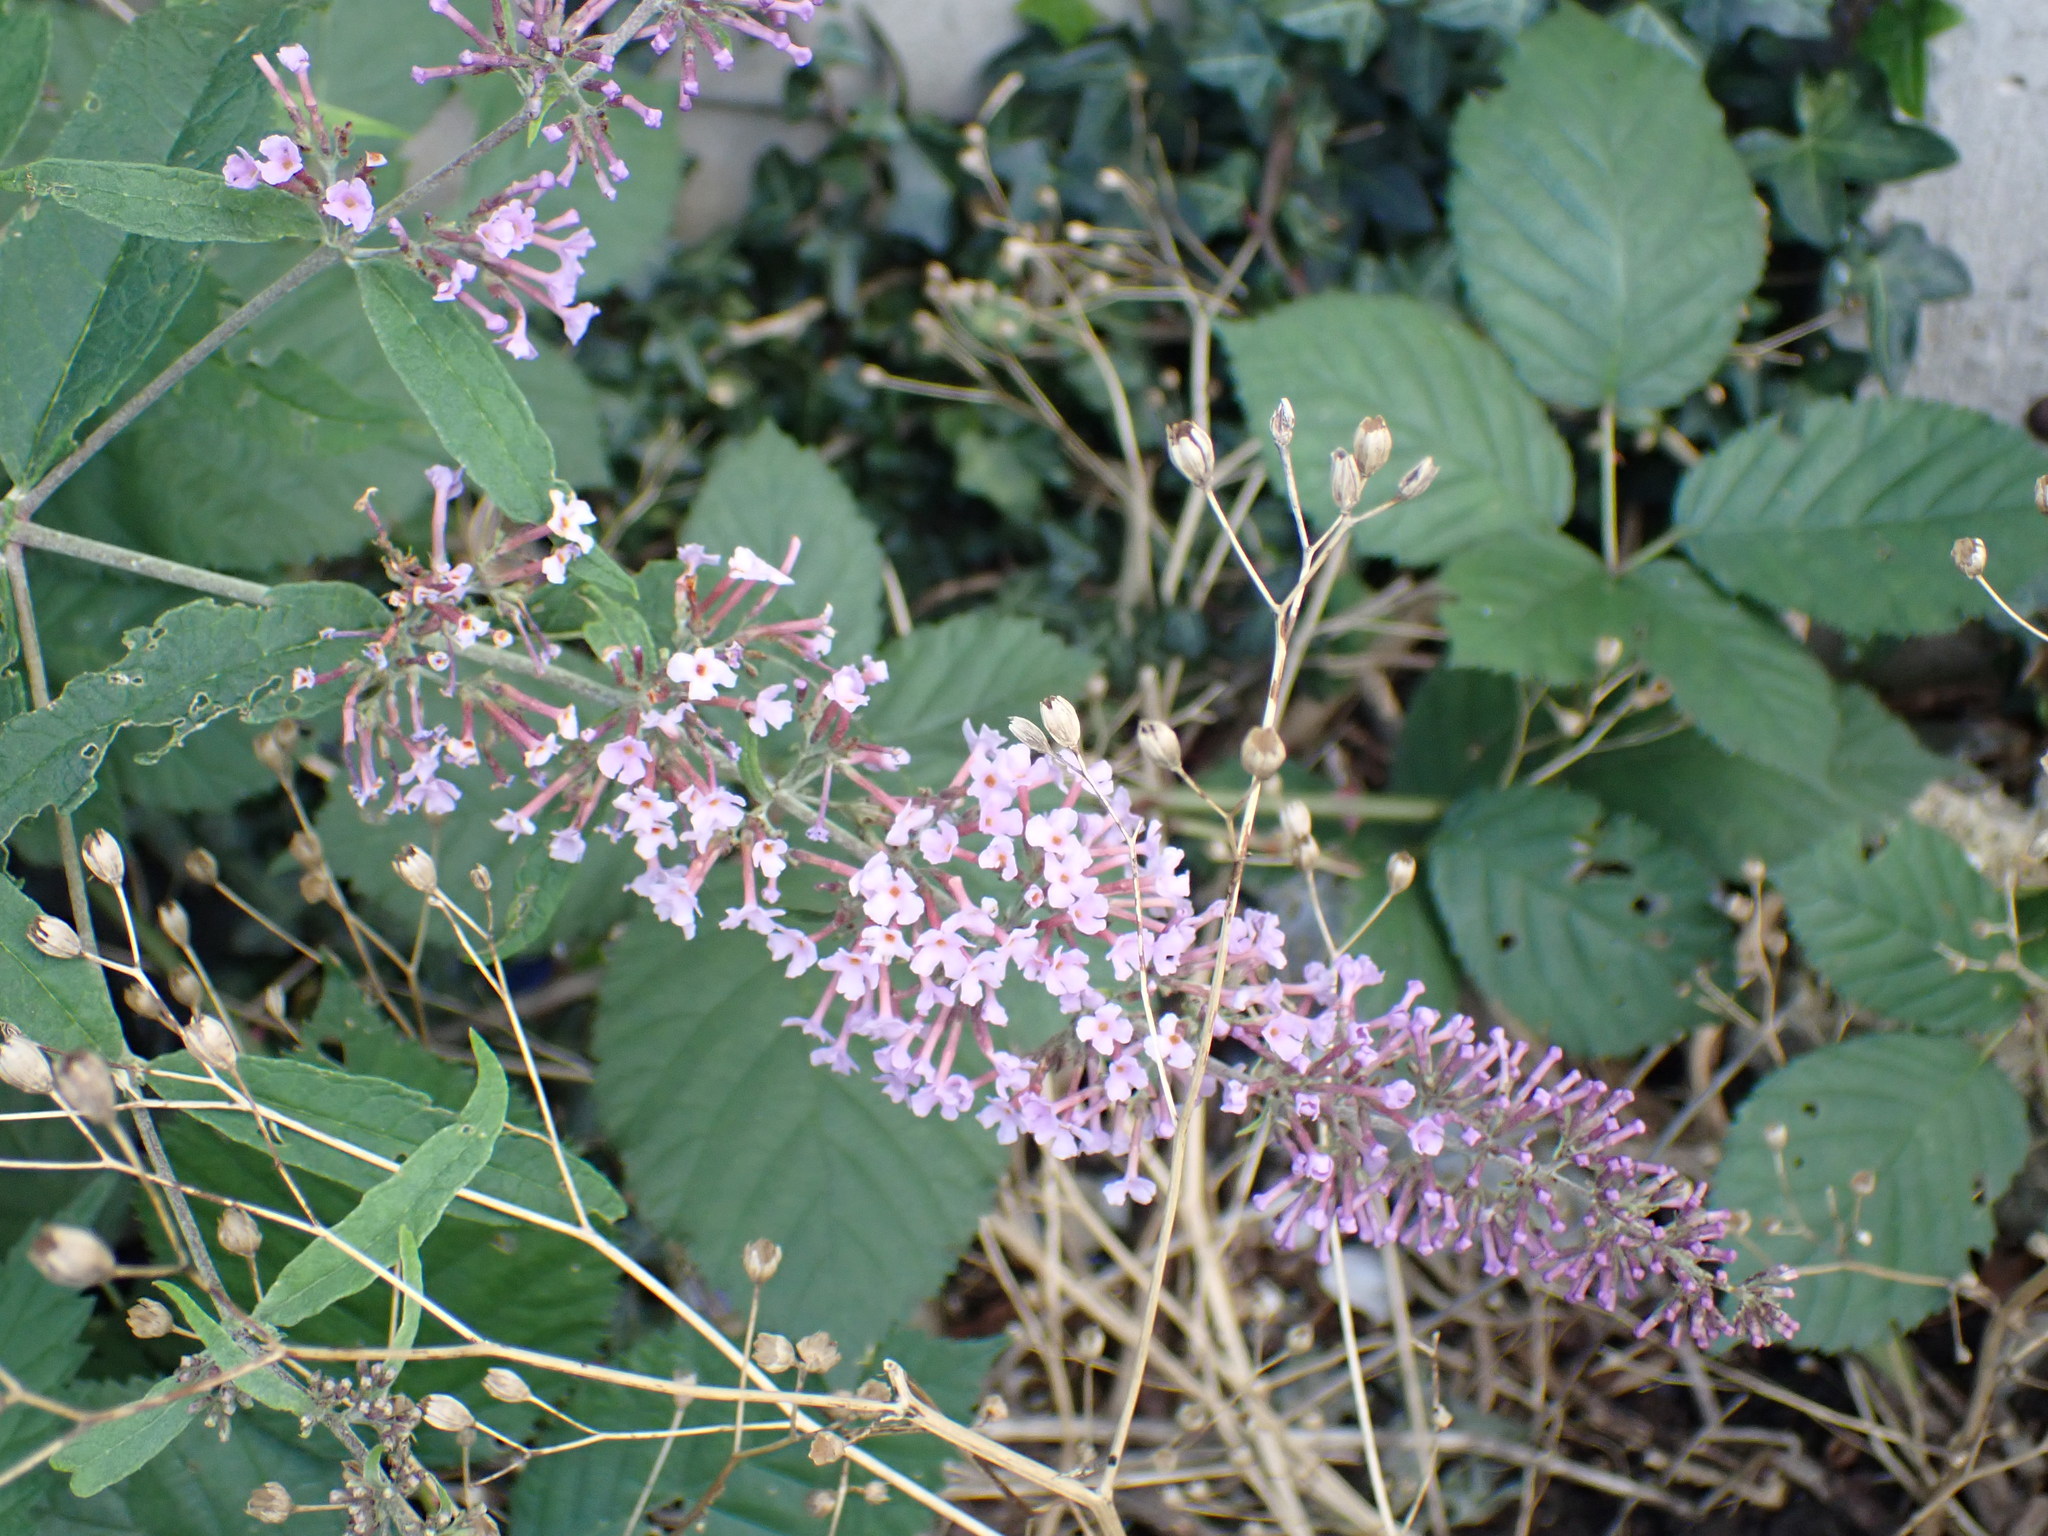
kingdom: Plantae
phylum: Tracheophyta
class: Magnoliopsida
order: Lamiales
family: Scrophulariaceae
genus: Buddleja
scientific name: Buddleja davidii
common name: Butterfly-bush
